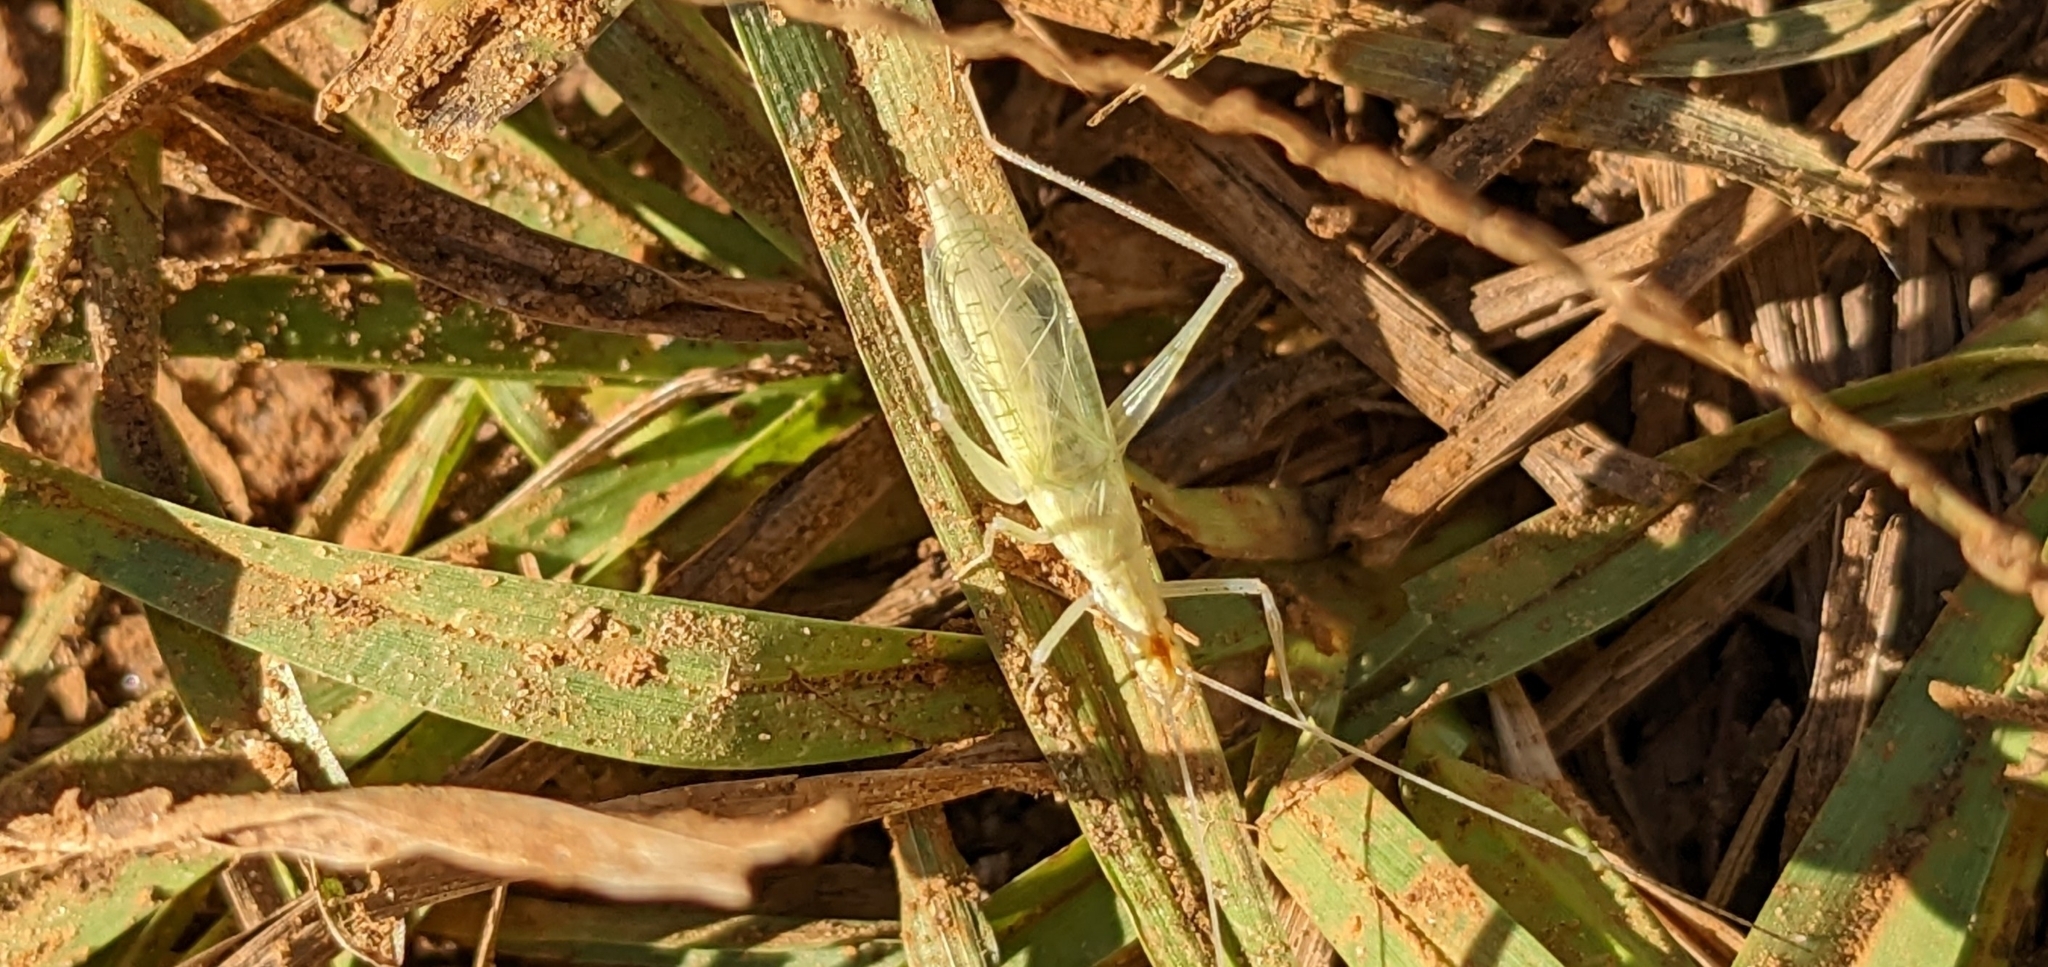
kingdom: Animalia
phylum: Arthropoda
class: Insecta
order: Orthoptera
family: Gryllidae
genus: Oecanthus
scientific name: Oecanthus niveus
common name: Narrow-winged tree cricket
